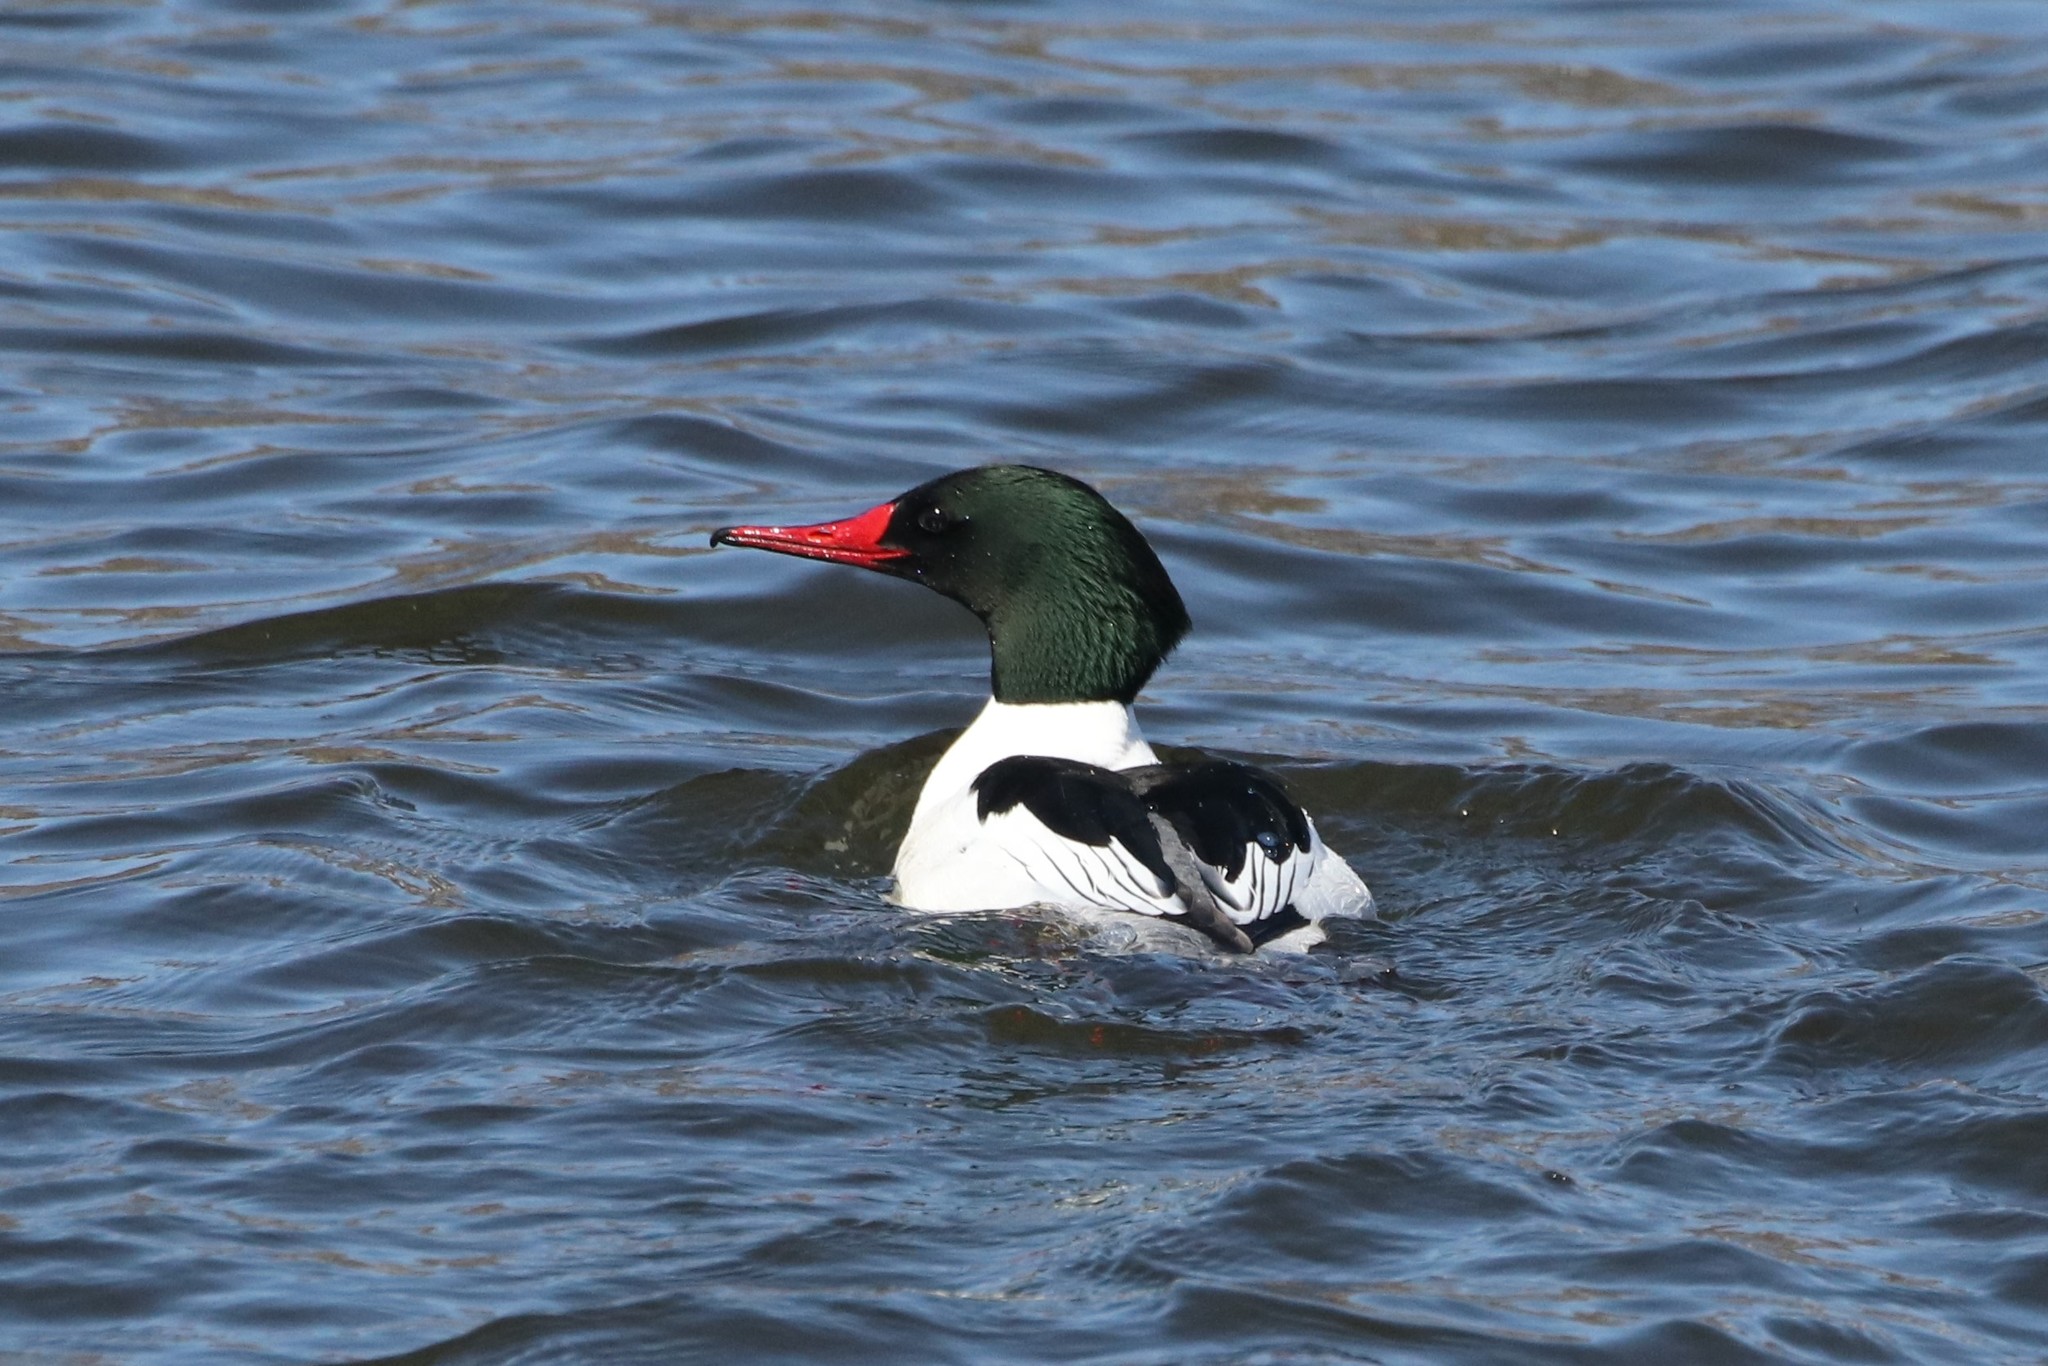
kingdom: Animalia
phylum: Chordata
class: Aves
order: Anseriformes
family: Anatidae
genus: Mergus
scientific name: Mergus merganser
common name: Common merganser
